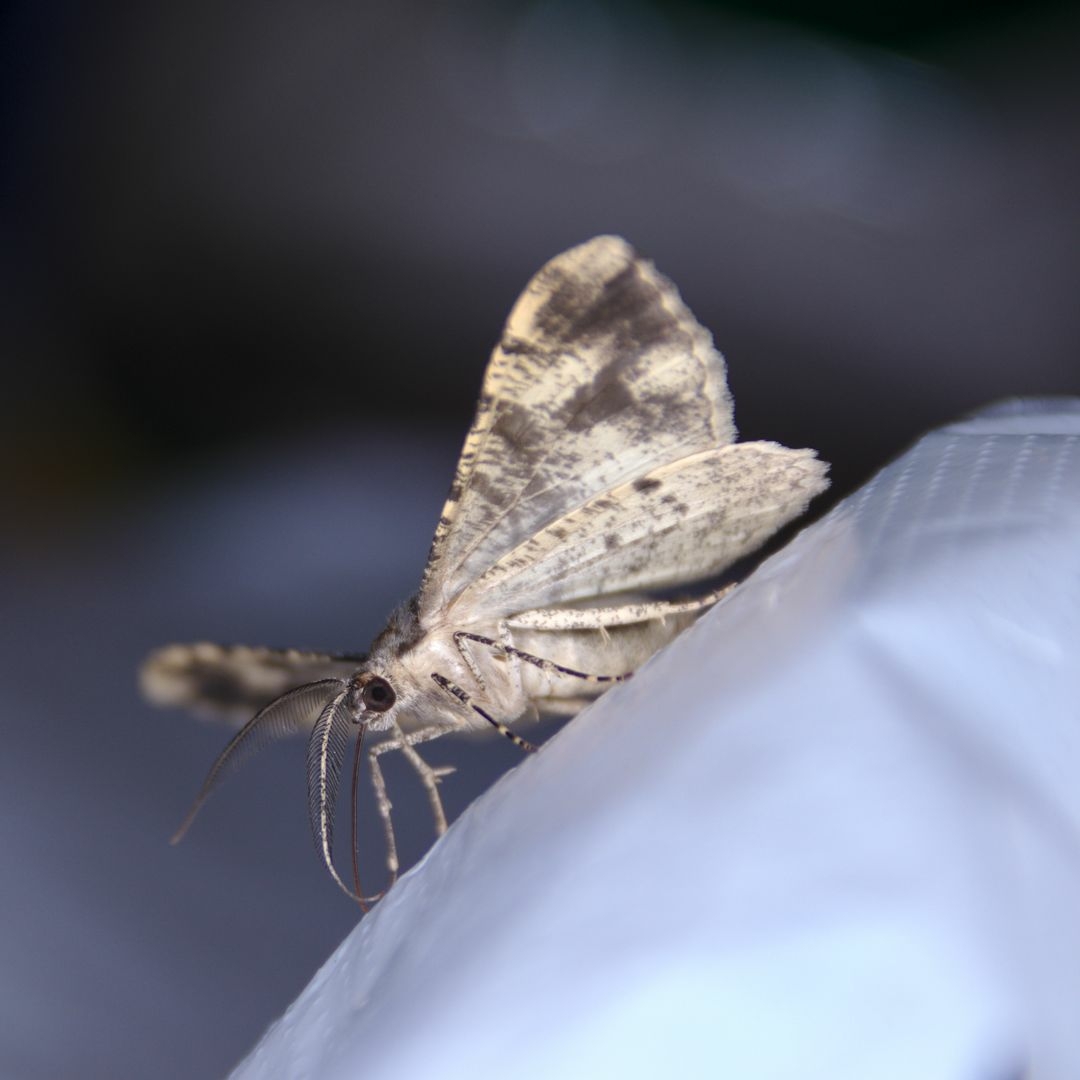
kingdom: Animalia
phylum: Arthropoda
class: Insecta
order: Lepidoptera
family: Geometridae
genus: Deileptenia
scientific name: Deileptenia ribeata
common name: Satin beauty
